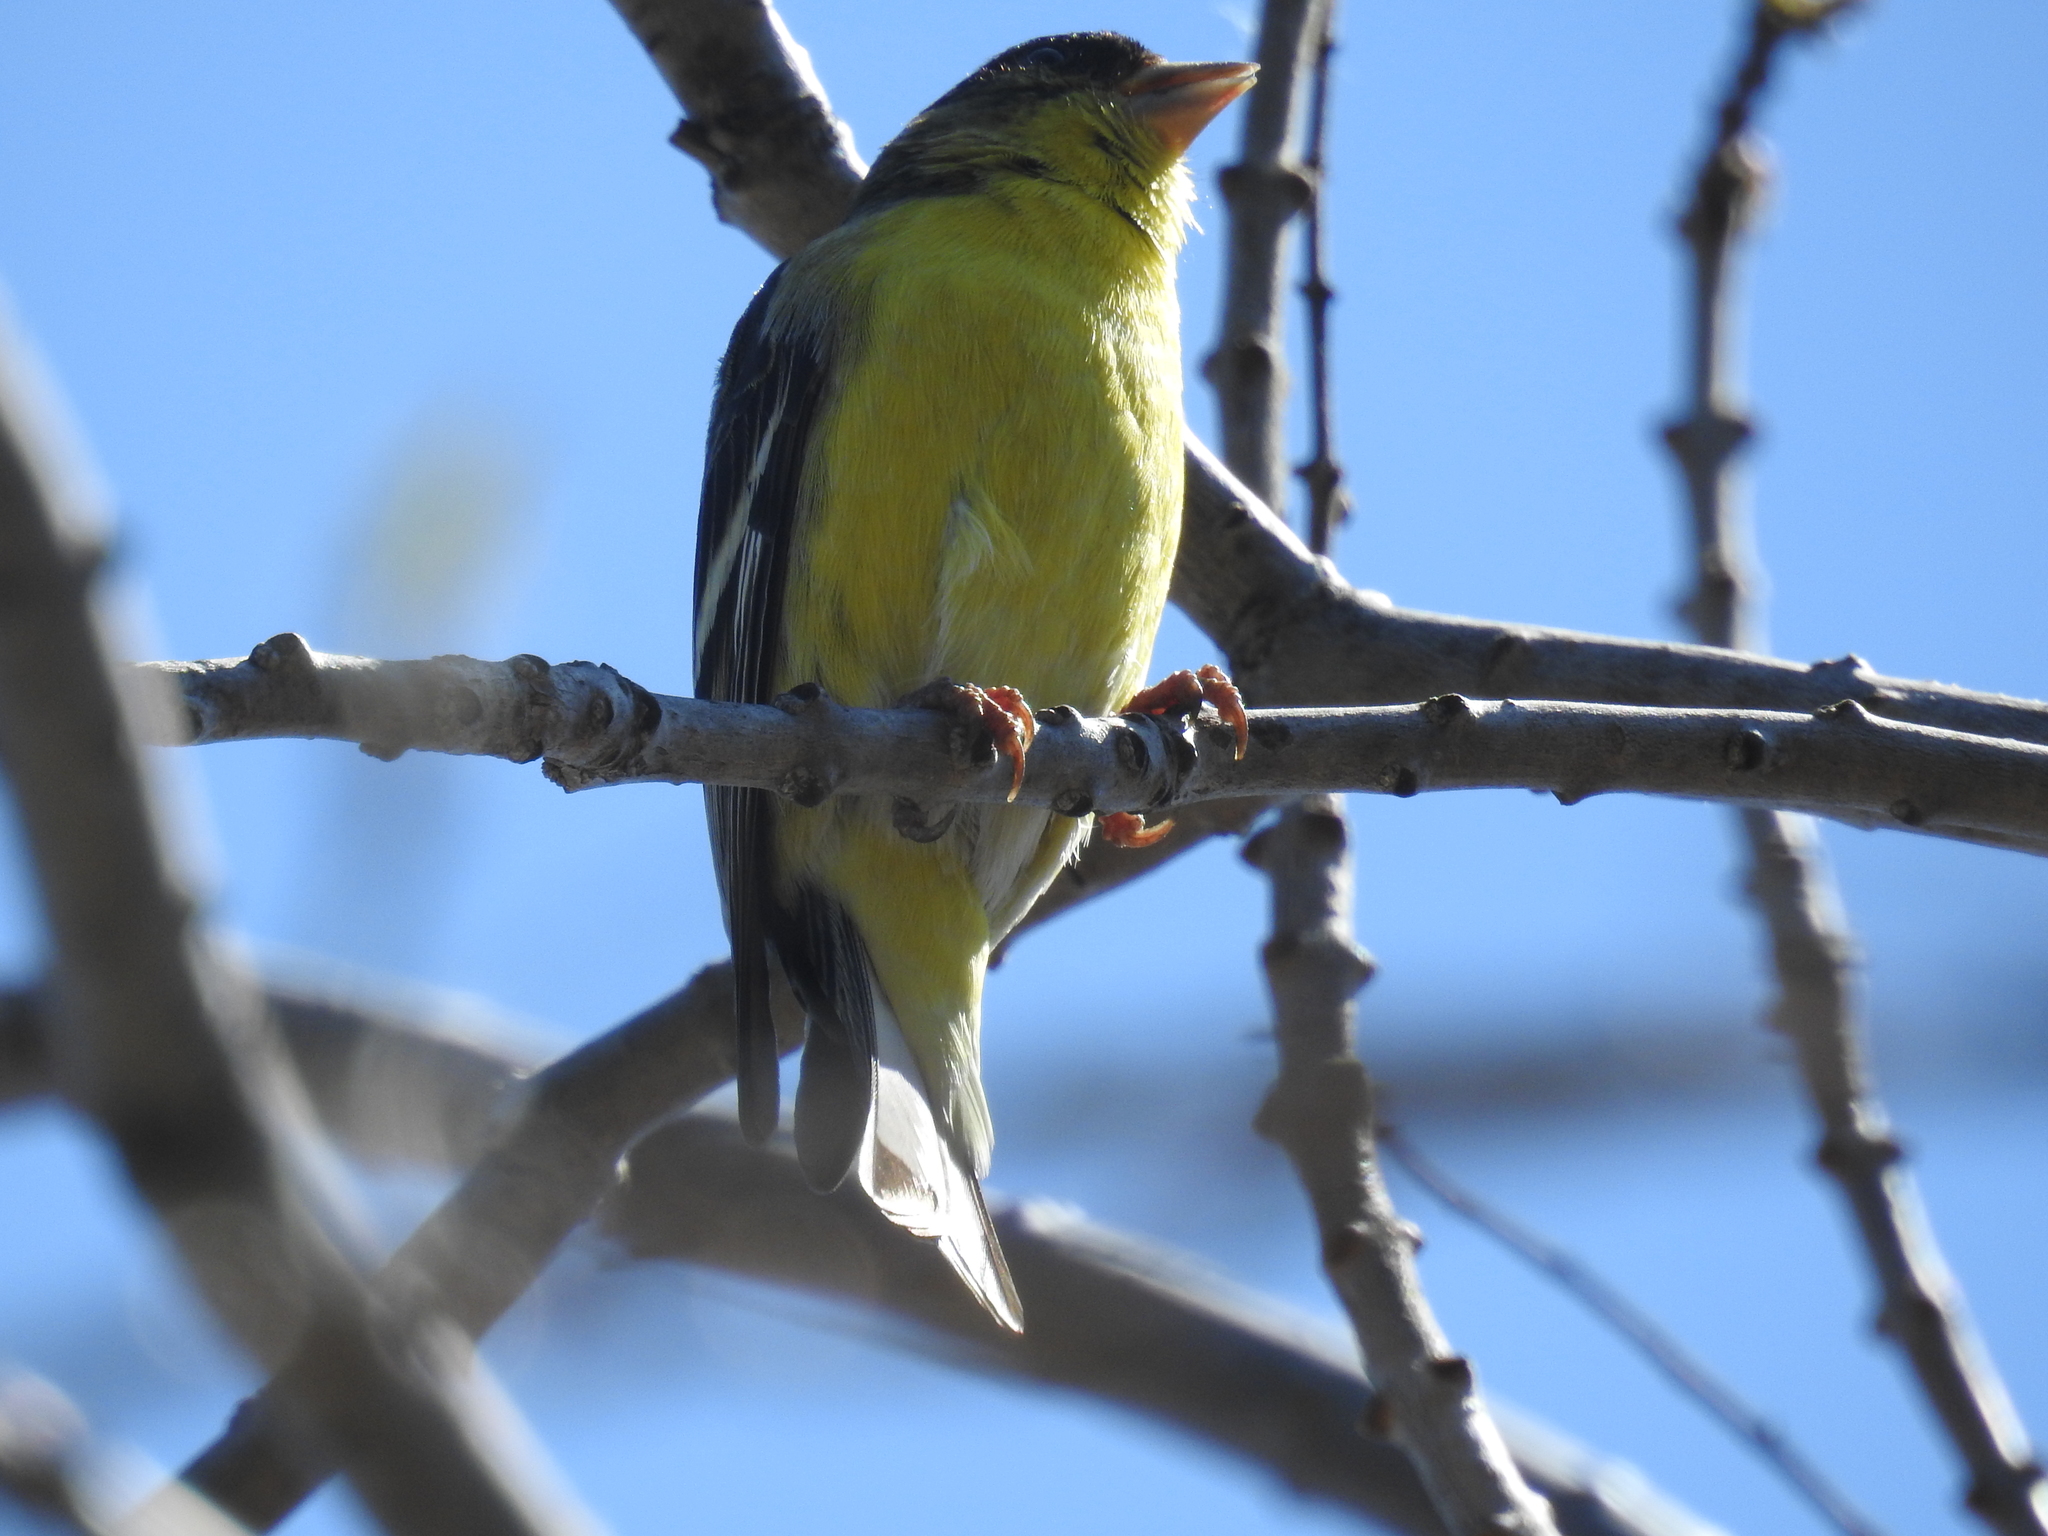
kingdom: Animalia
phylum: Chordata
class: Aves
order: Passeriformes
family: Fringillidae
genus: Spinus
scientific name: Spinus psaltria
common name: Lesser goldfinch
